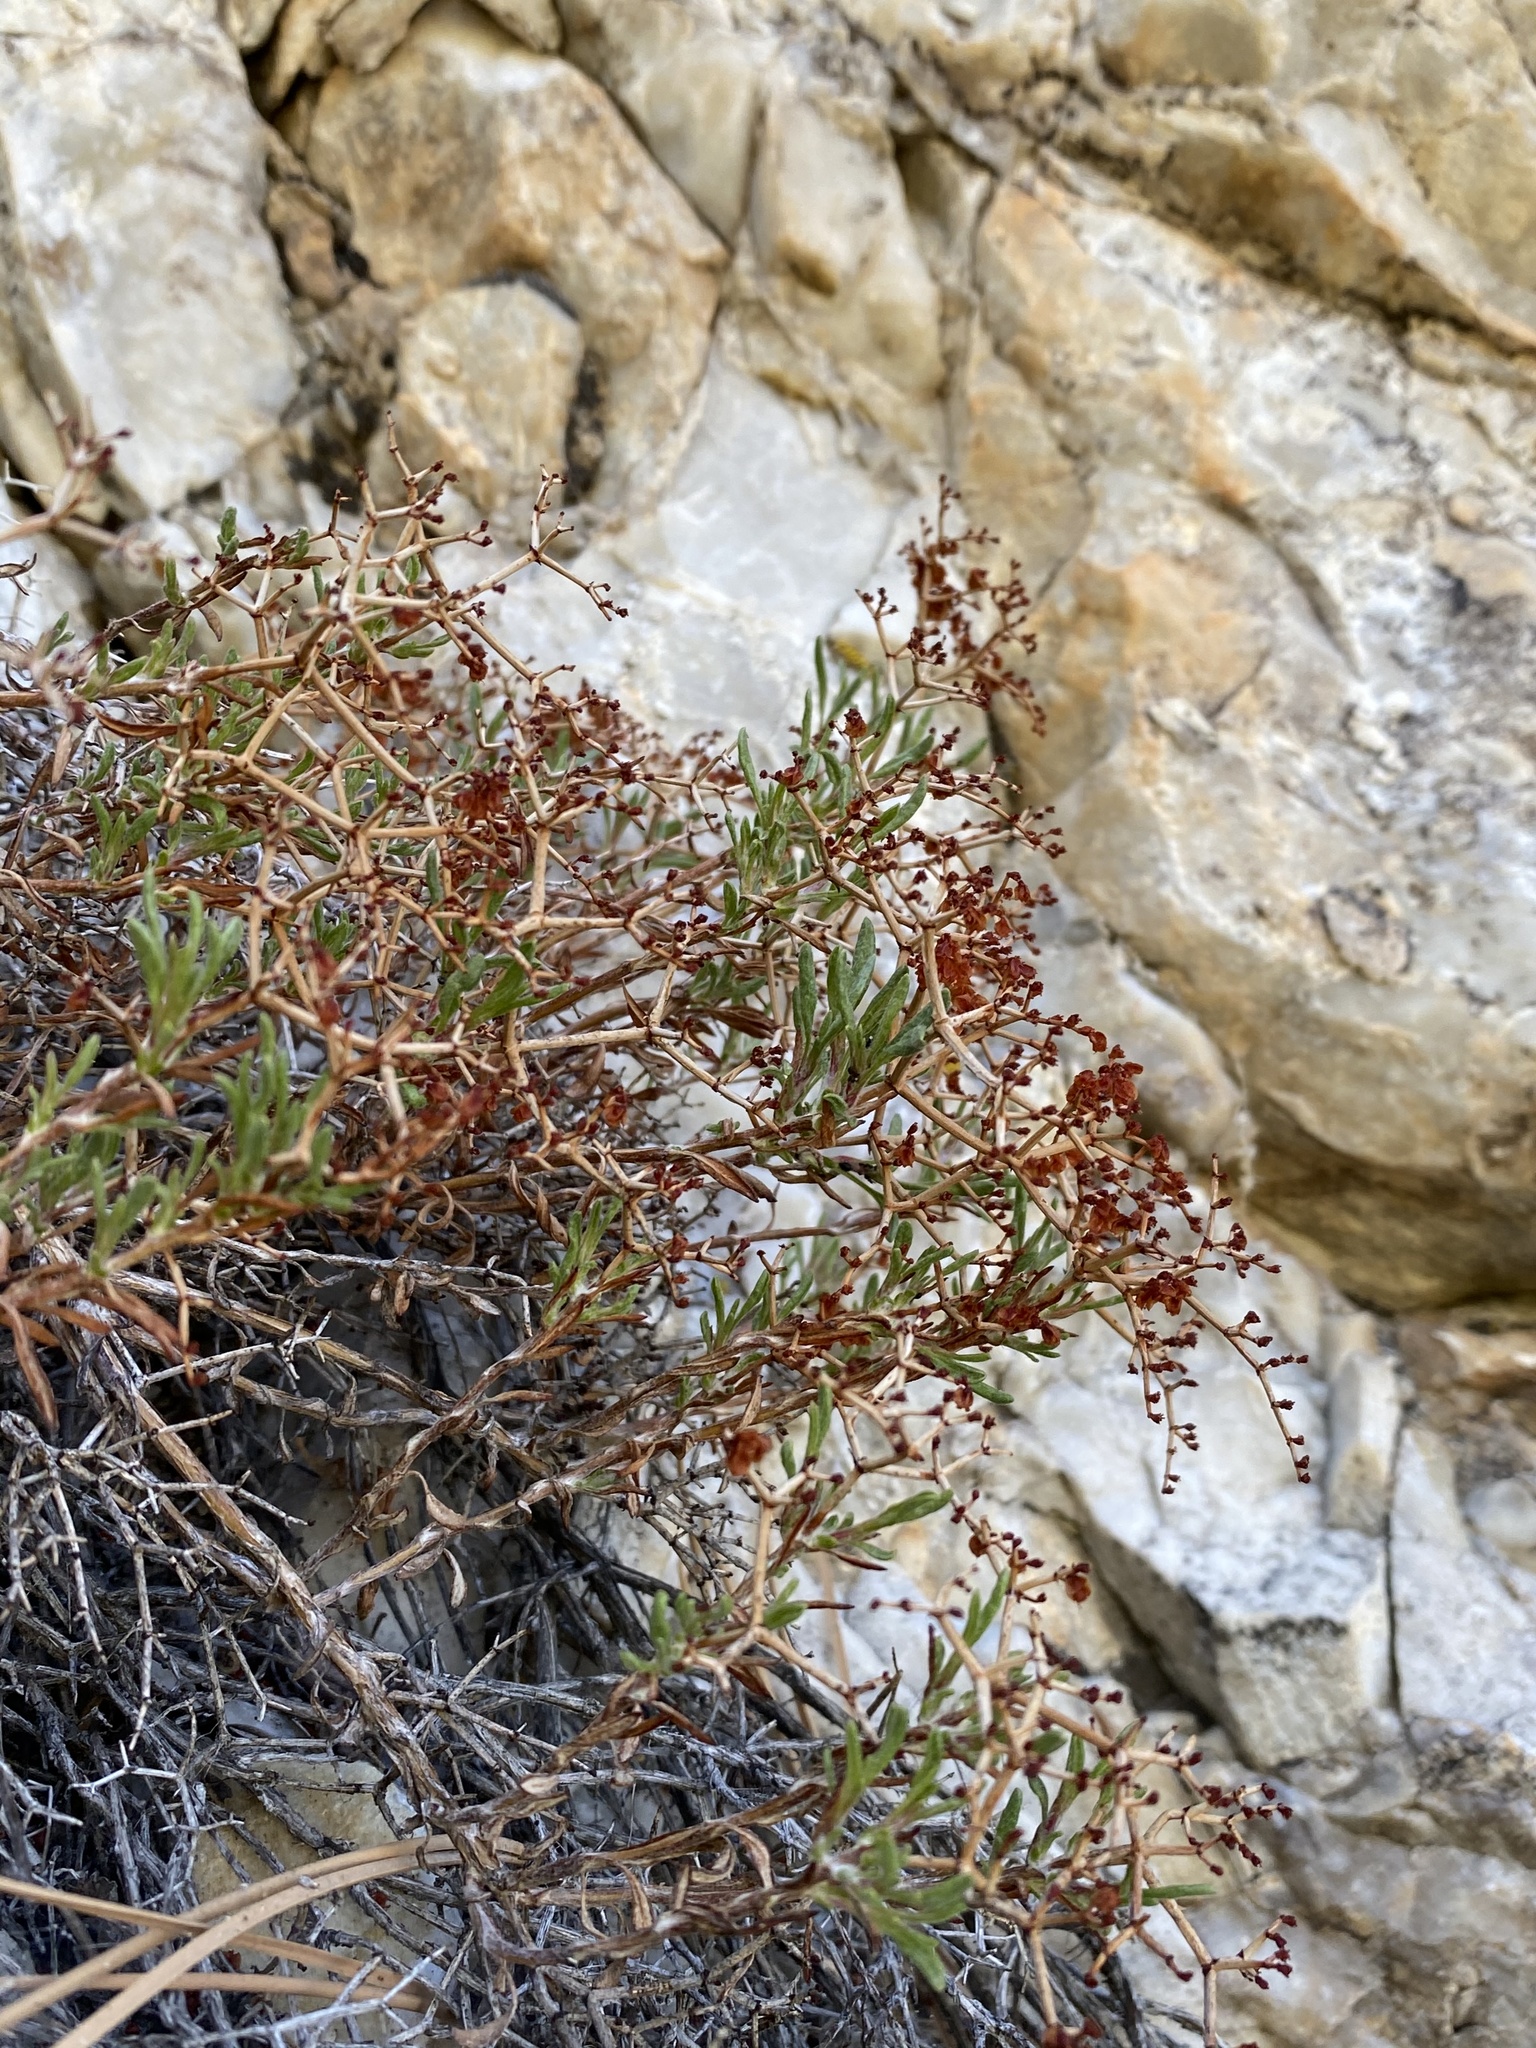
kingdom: Plantae
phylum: Tracheophyta
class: Magnoliopsida
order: Caryophyllales
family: Polygonaceae
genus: Eriogonum
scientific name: Eriogonum heermannii
